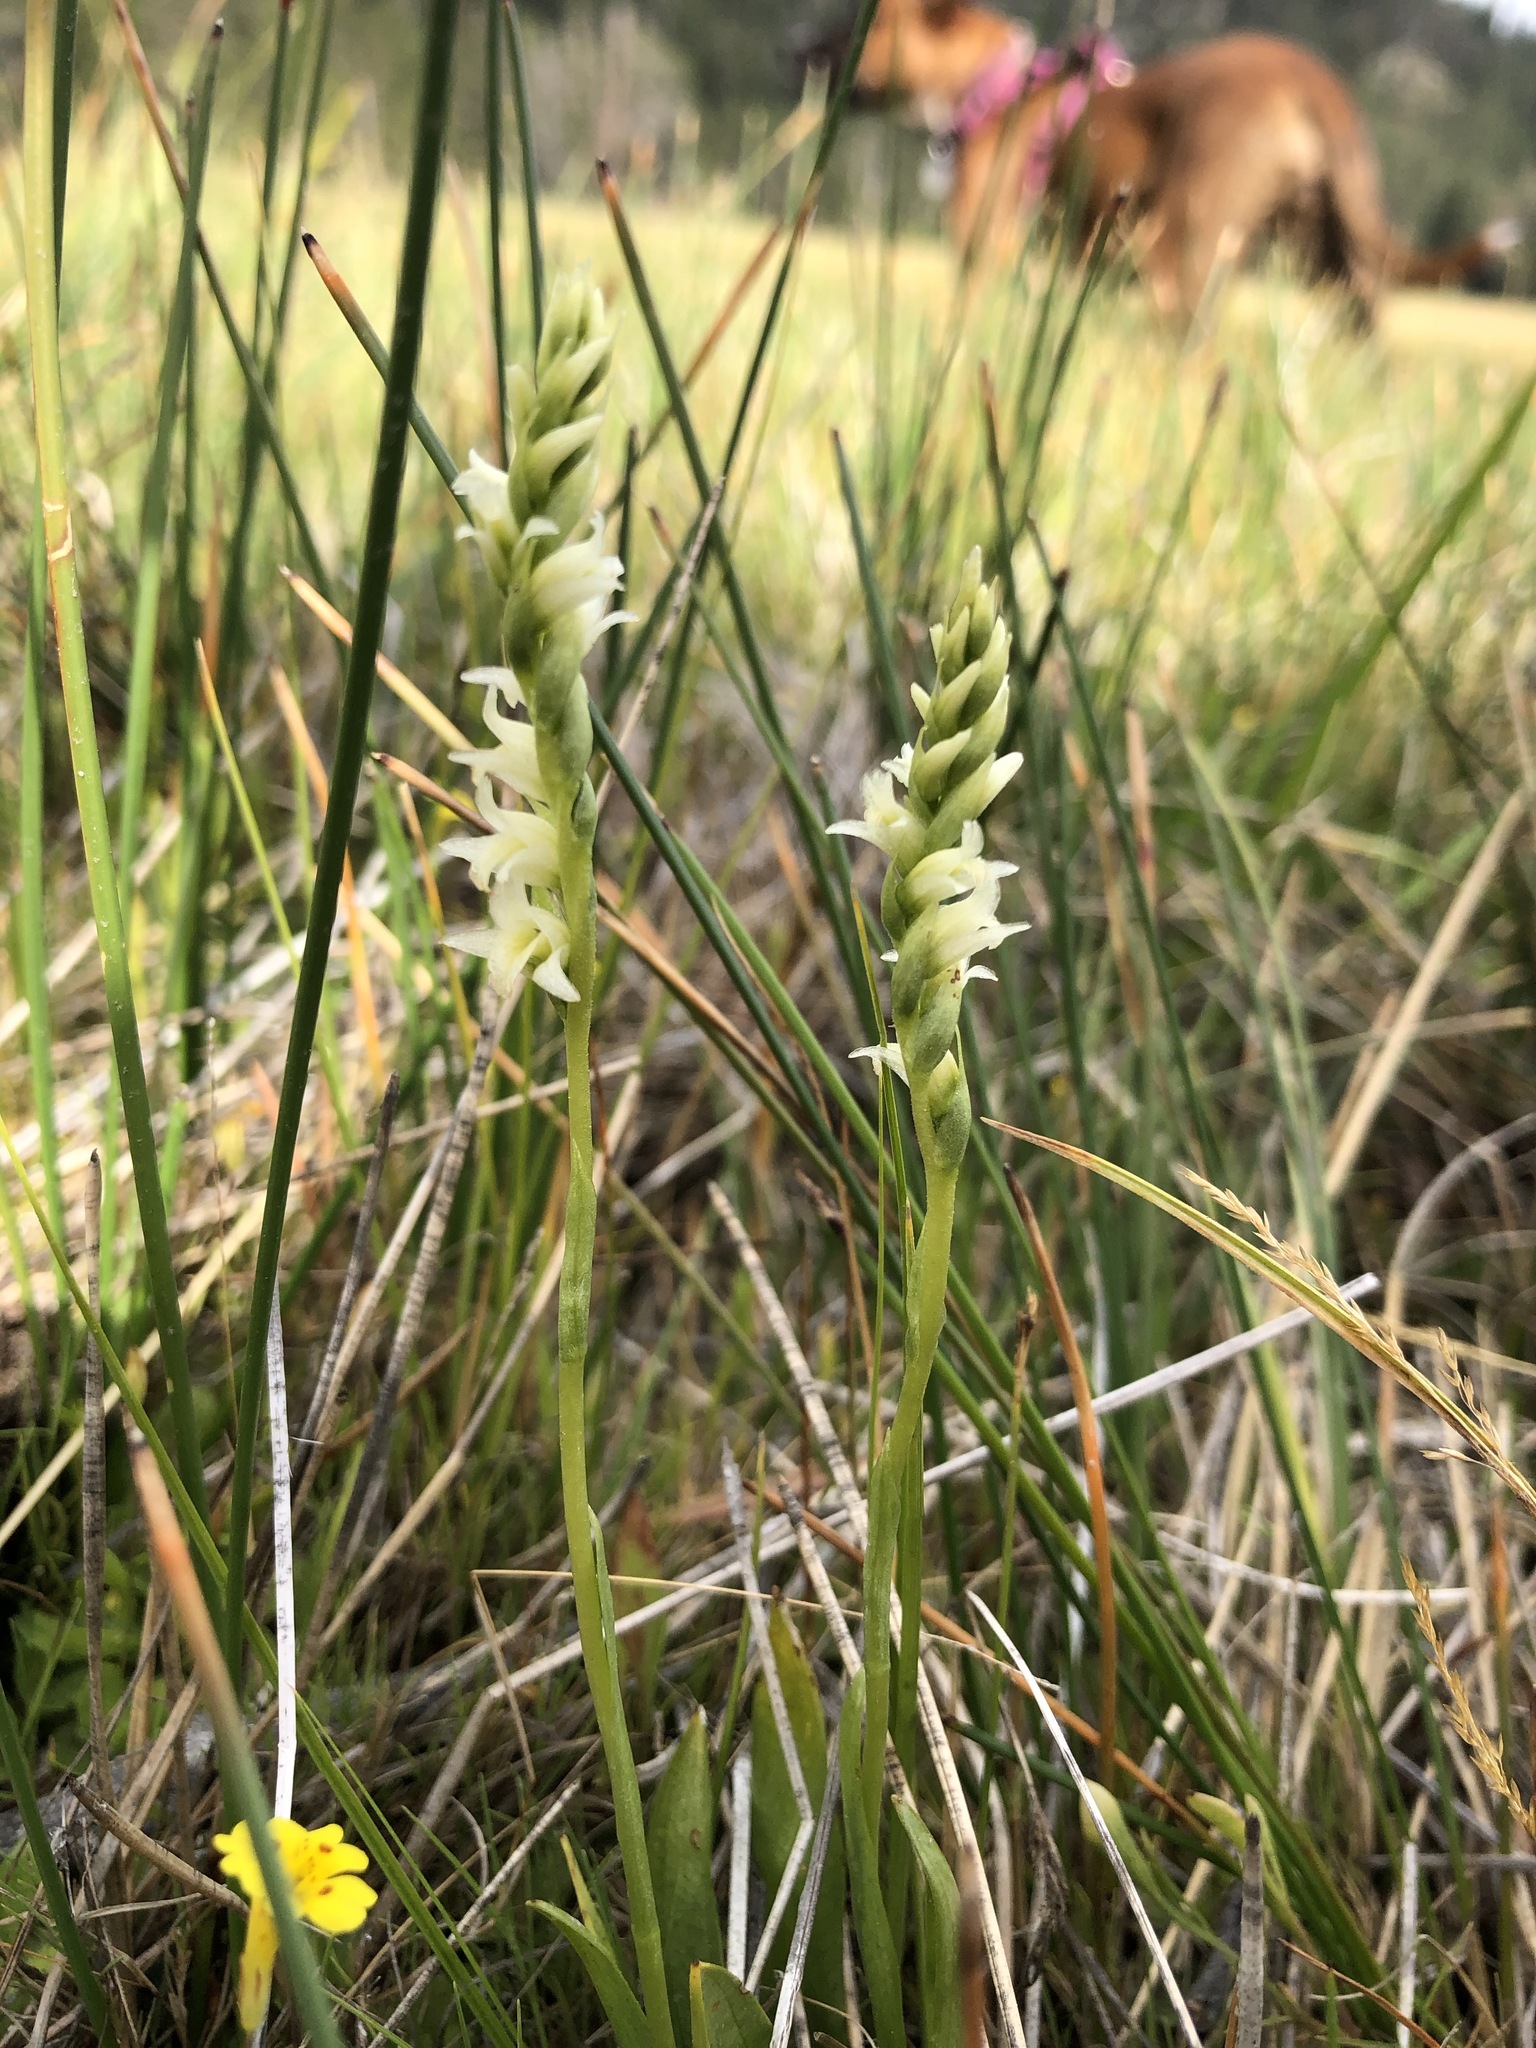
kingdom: Plantae
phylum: Tracheophyta
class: Liliopsida
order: Asparagales
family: Orchidaceae
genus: Spiranthes
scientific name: Spiranthes perexilis
